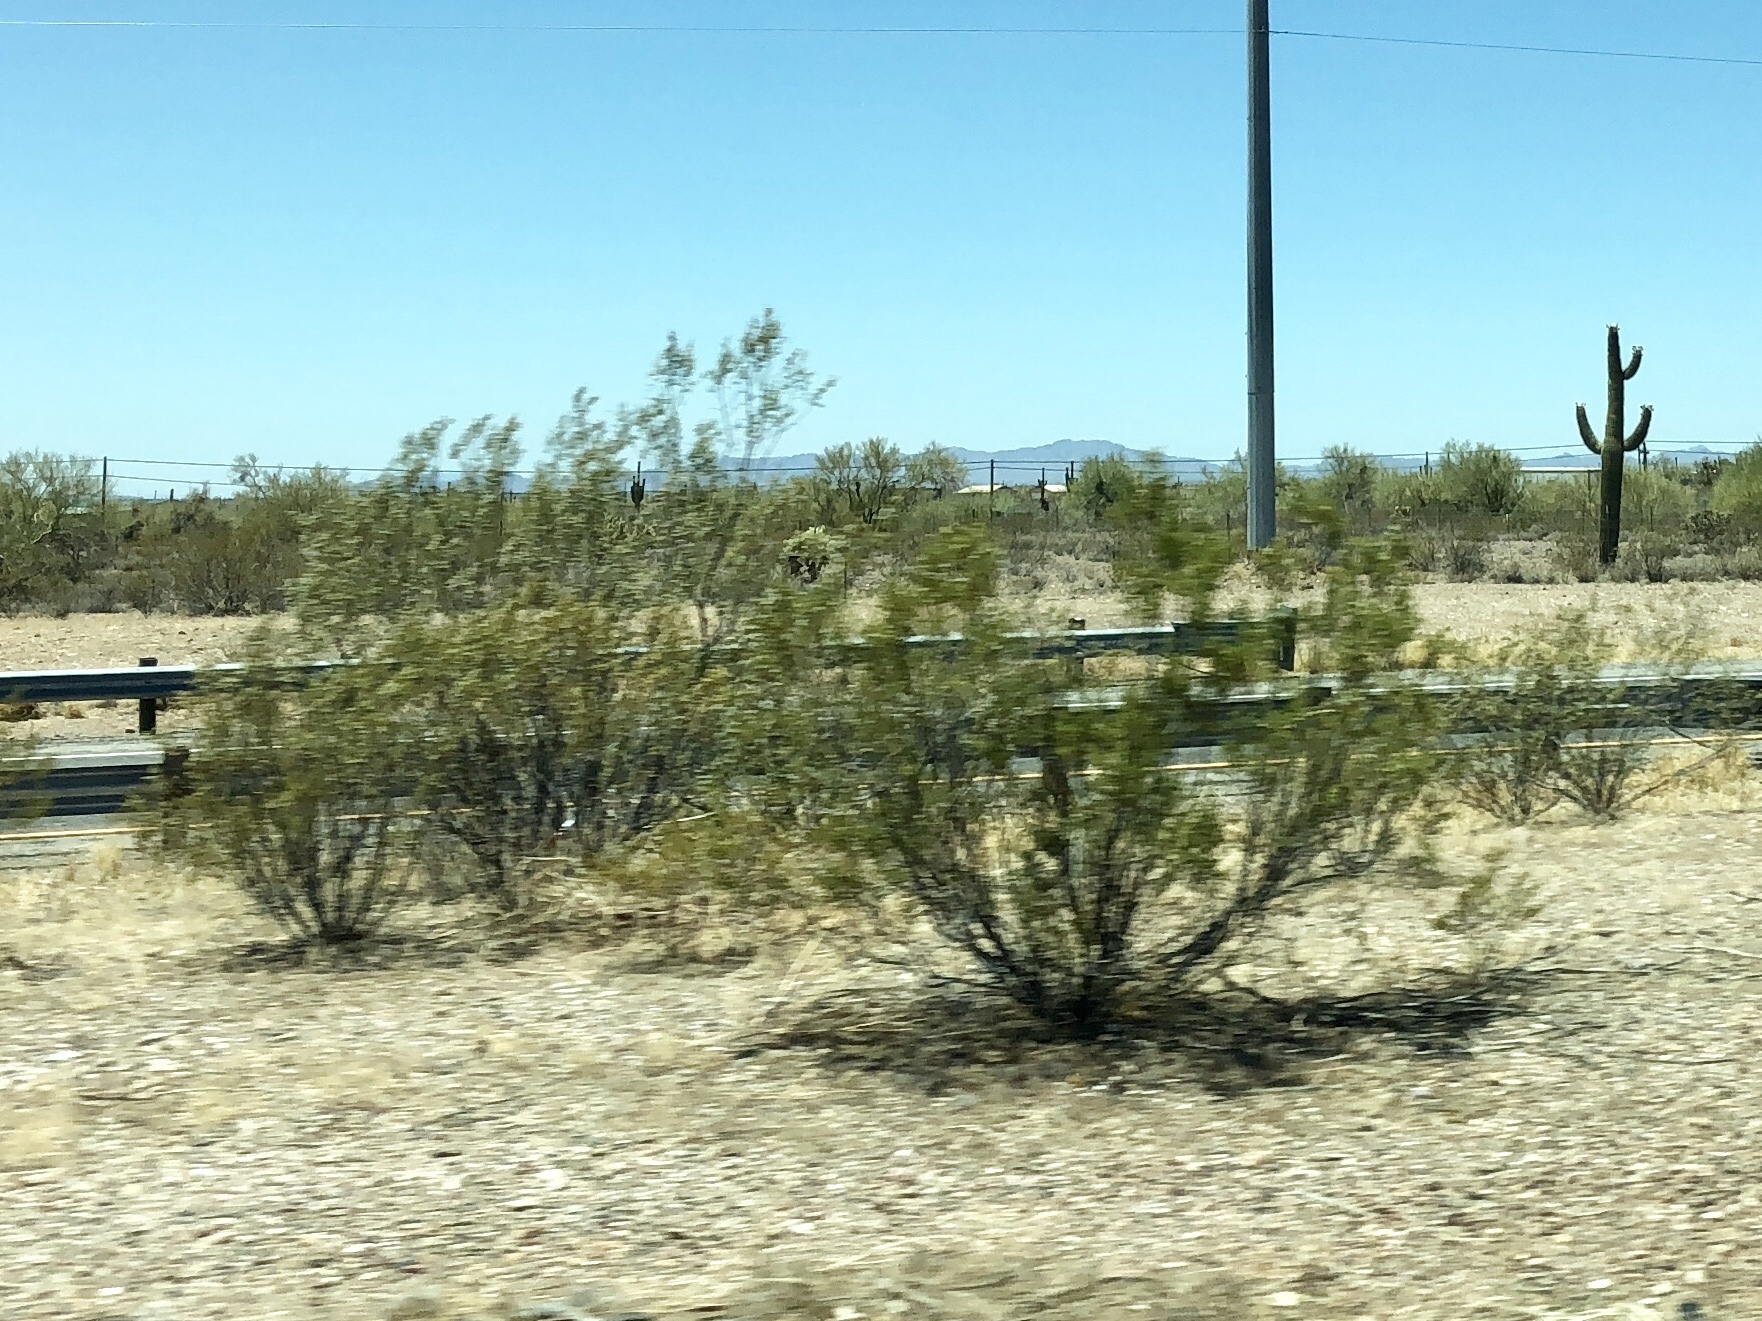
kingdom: Plantae
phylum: Tracheophyta
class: Magnoliopsida
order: Zygophyllales
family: Zygophyllaceae
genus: Larrea
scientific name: Larrea tridentata
